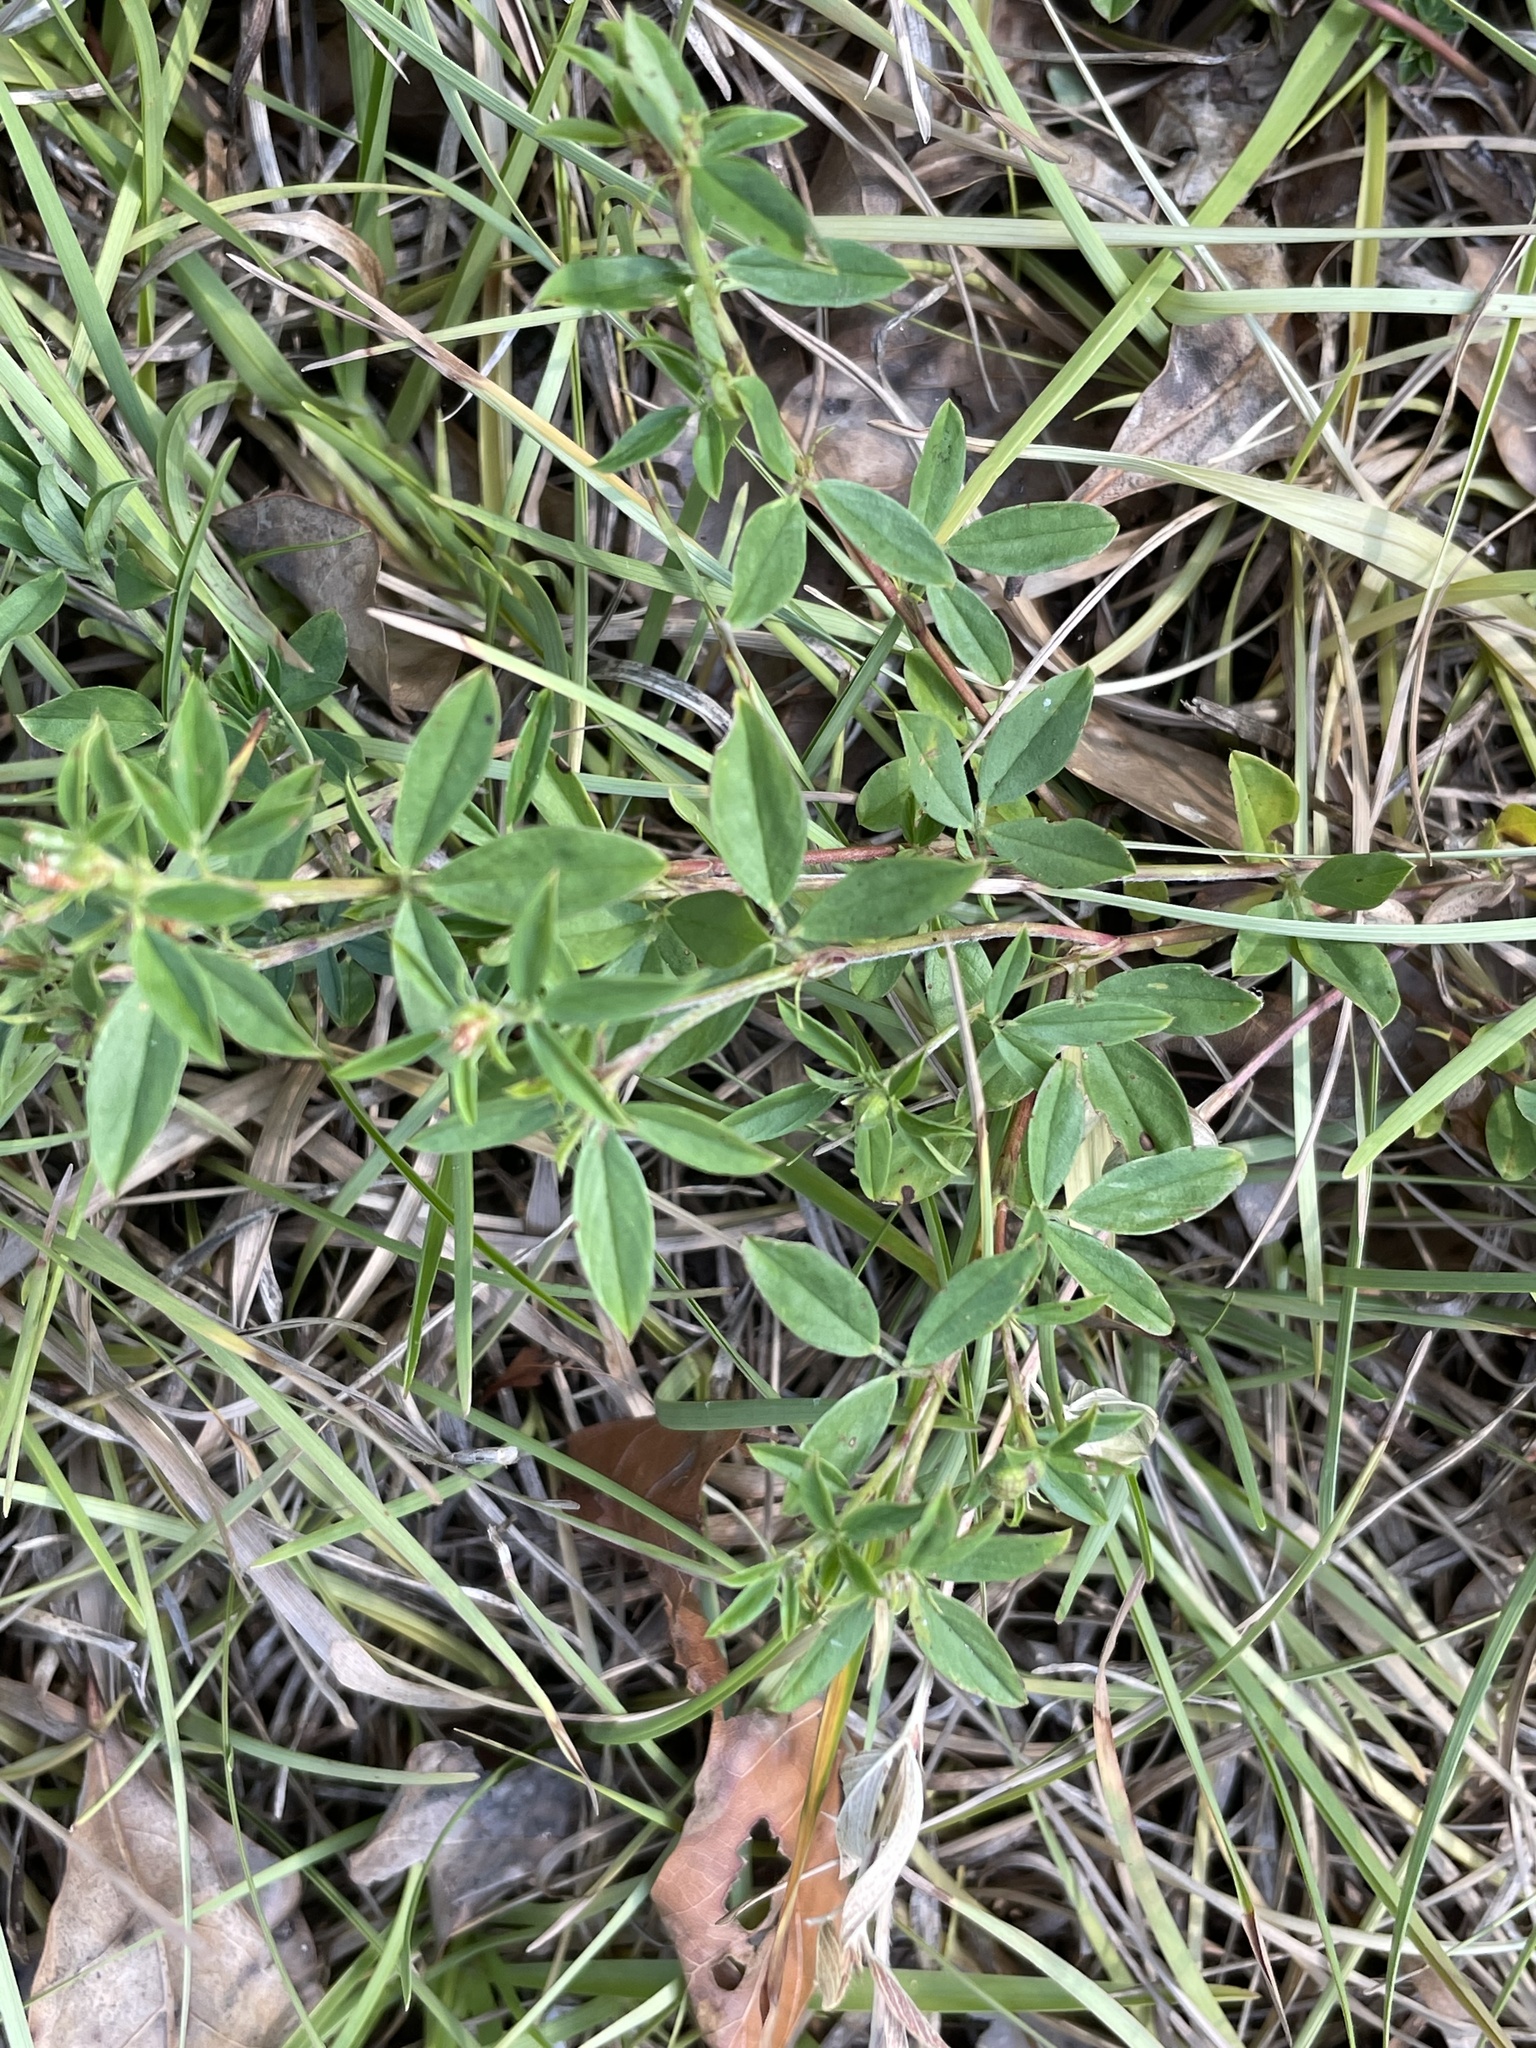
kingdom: Plantae
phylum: Tracheophyta
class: Magnoliopsida
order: Fabales
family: Fabaceae
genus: Stylosanthes
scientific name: Stylosanthes biflora
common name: Two-flower pencil-flower
